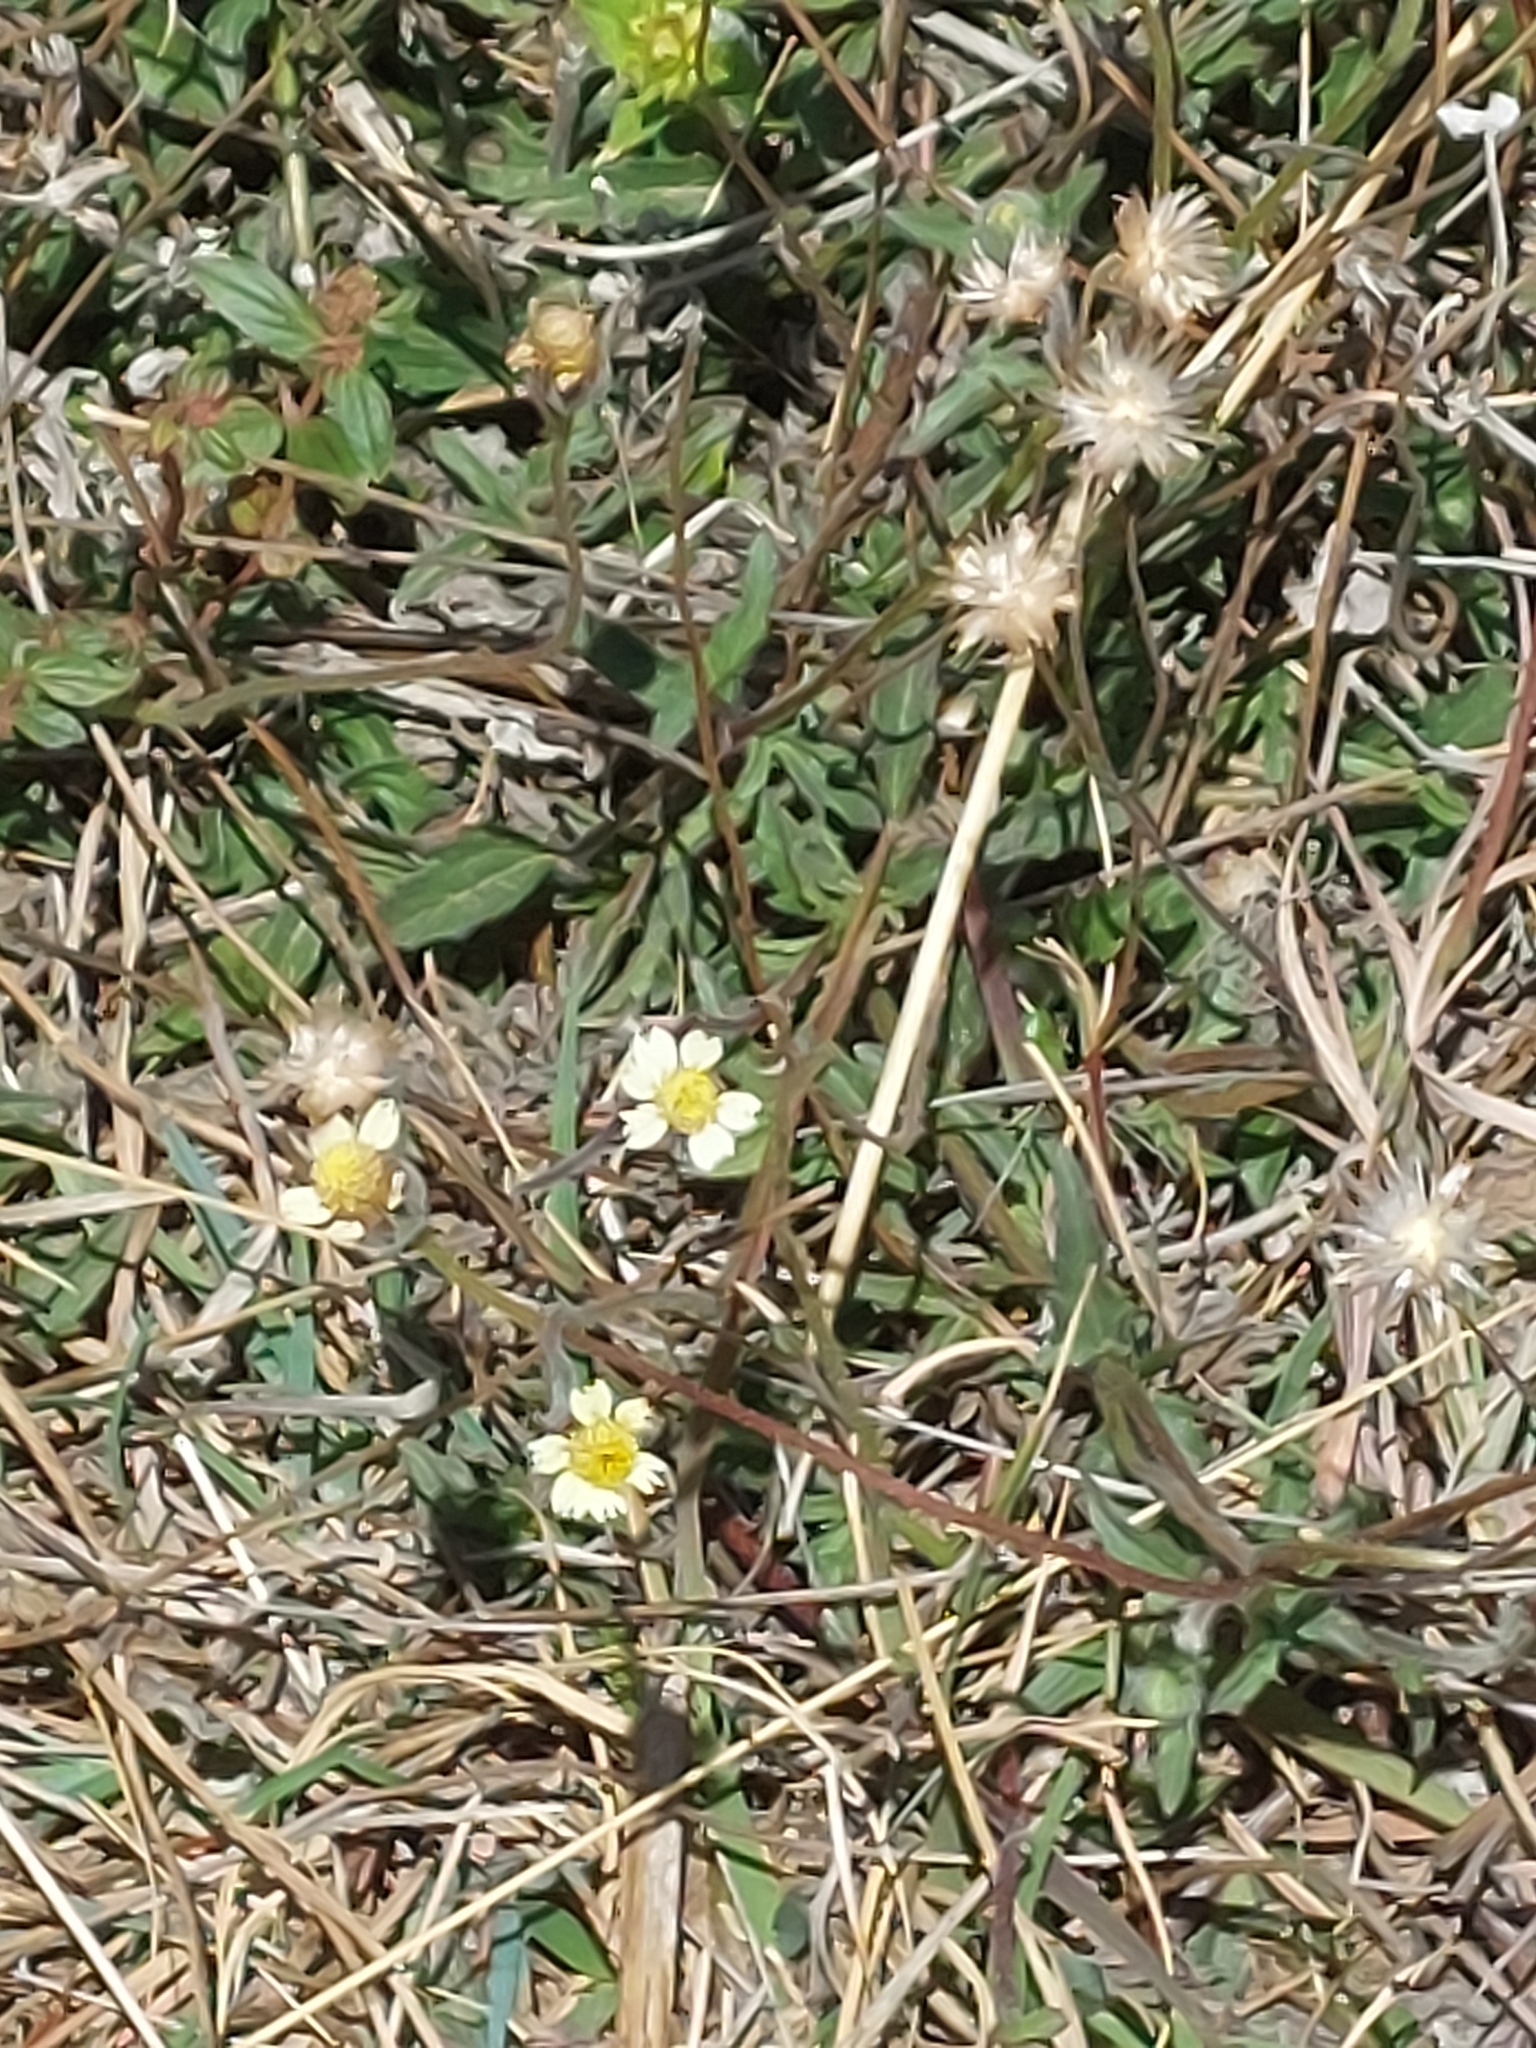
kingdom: Plantae
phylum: Tracheophyta
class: Magnoliopsida
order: Asterales
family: Asteraceae
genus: Tridax
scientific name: Tridax procumbens
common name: Coatbuttons
